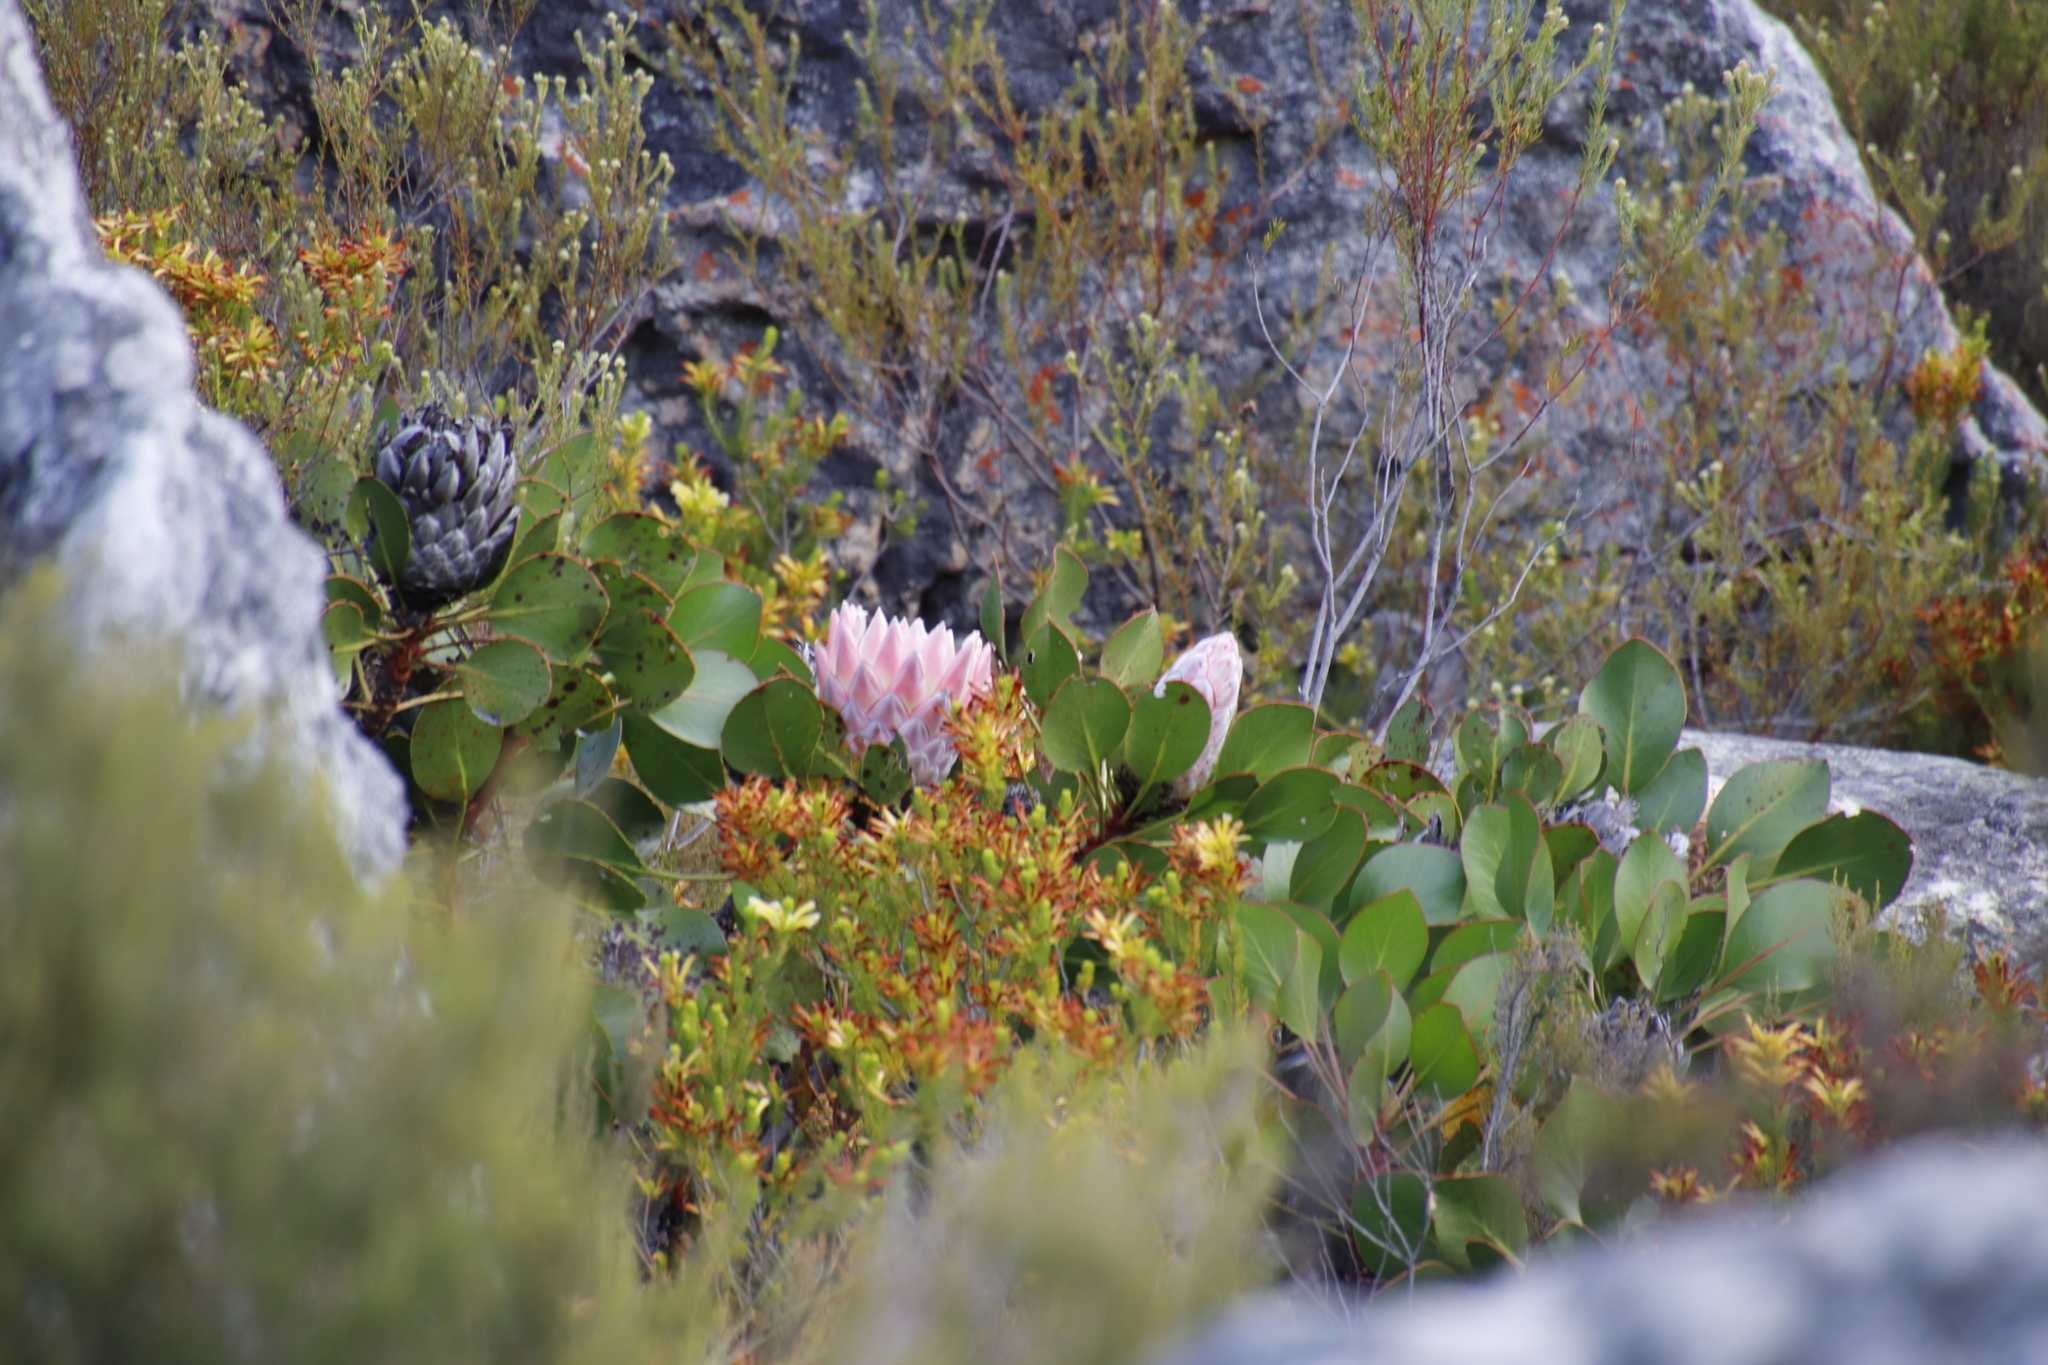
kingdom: Plantae
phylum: Tracheophyta
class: Magnoliopsida
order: Proteales
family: Proteaceae
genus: Protea
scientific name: Protea cynaroides
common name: King protea
